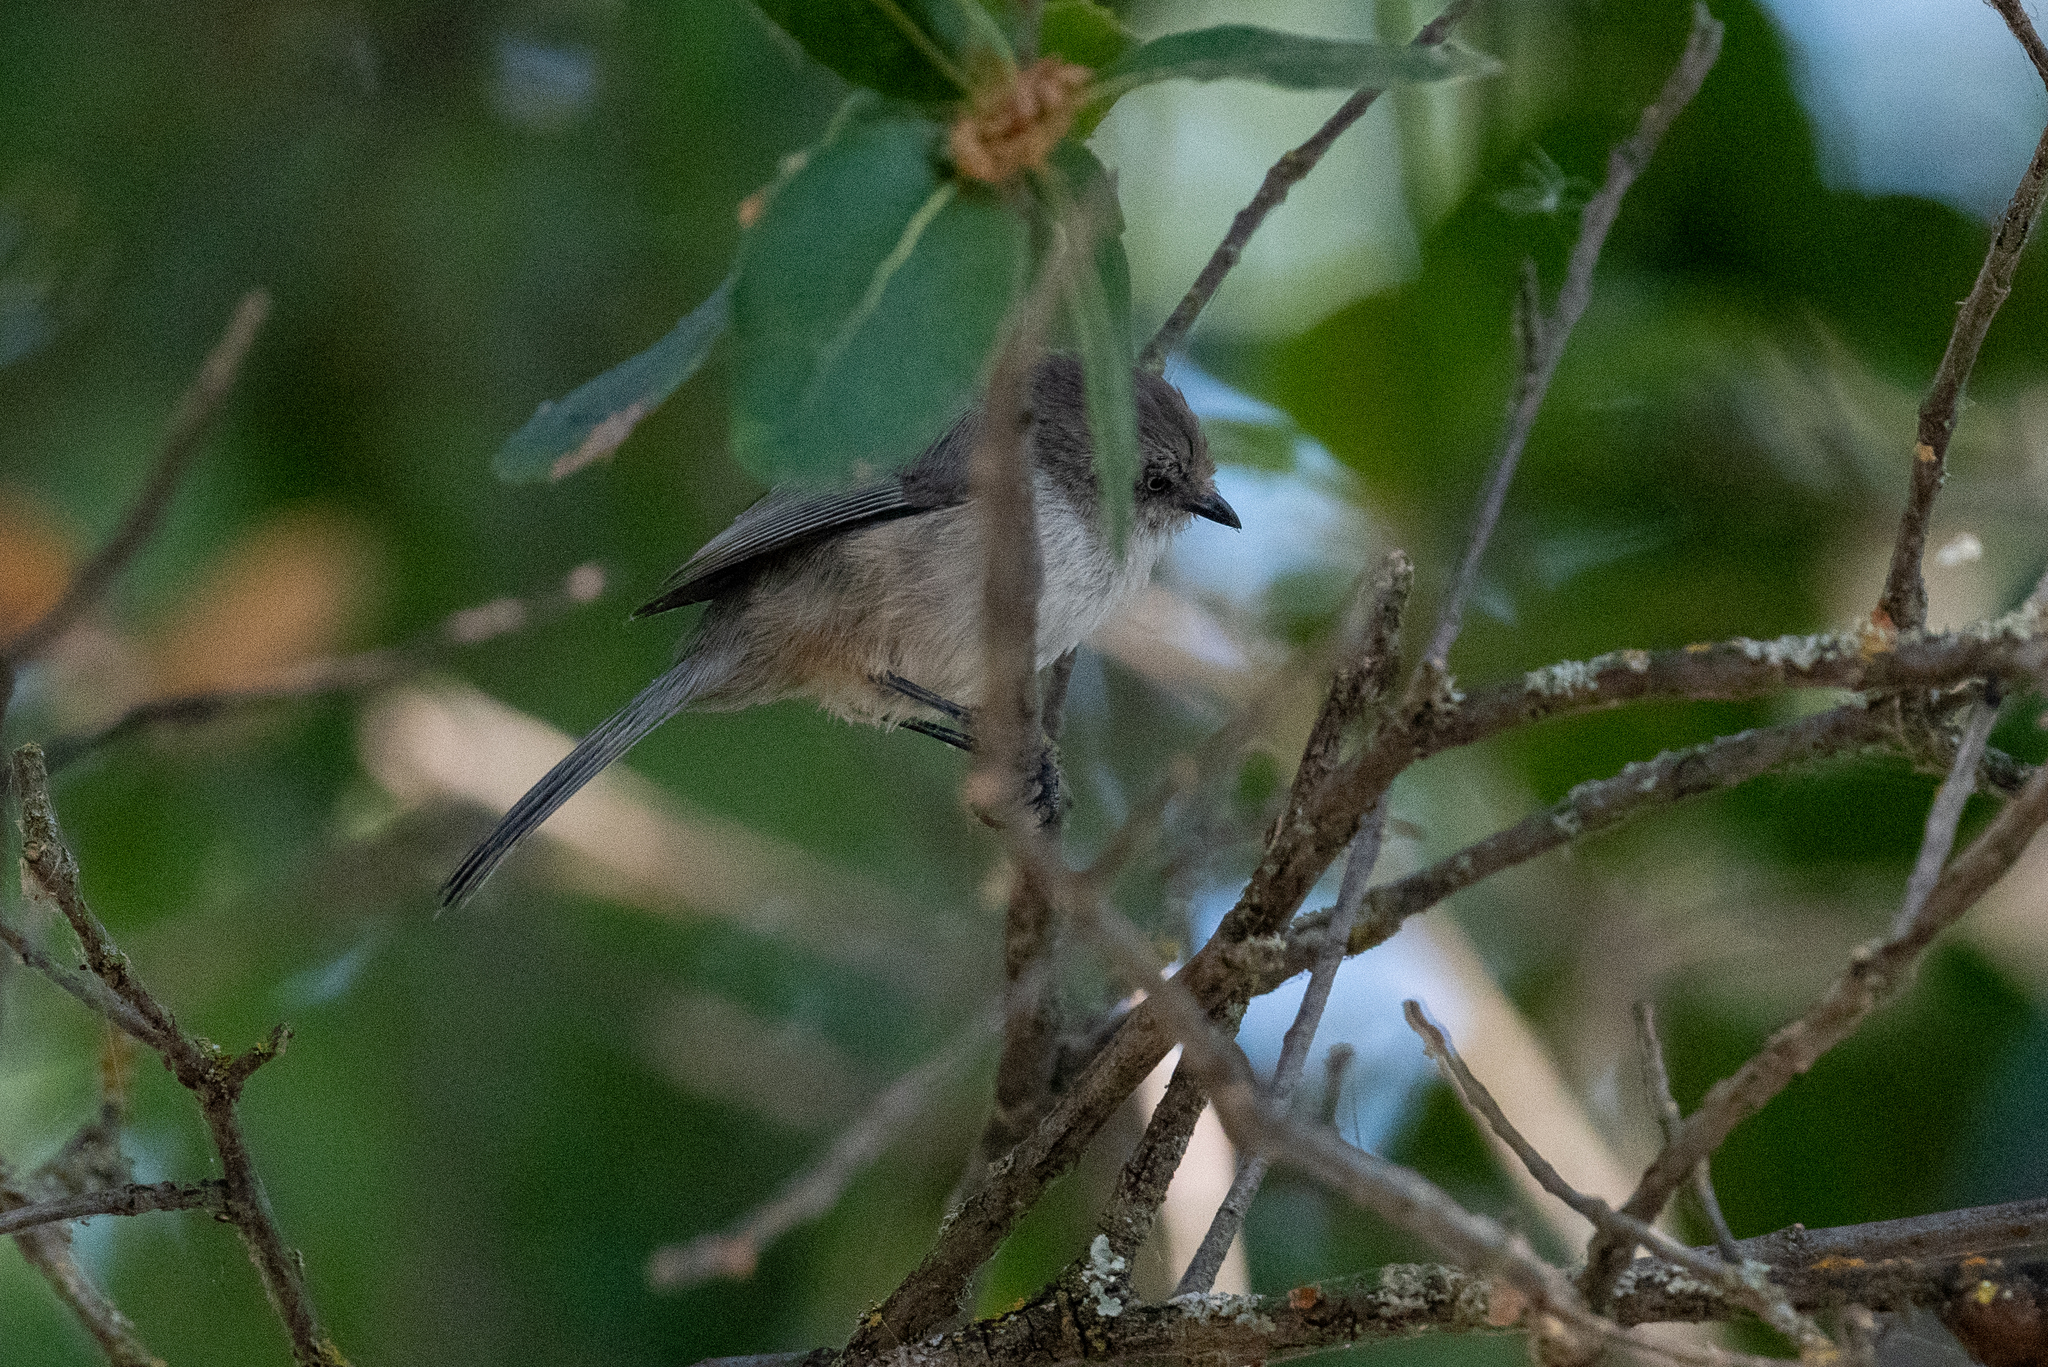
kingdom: Animalia
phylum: Chordata
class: Aves
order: Passeriformes
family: Aegithalidae
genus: Psaltriparus
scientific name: Psaltriparus minimus
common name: American bushtit
